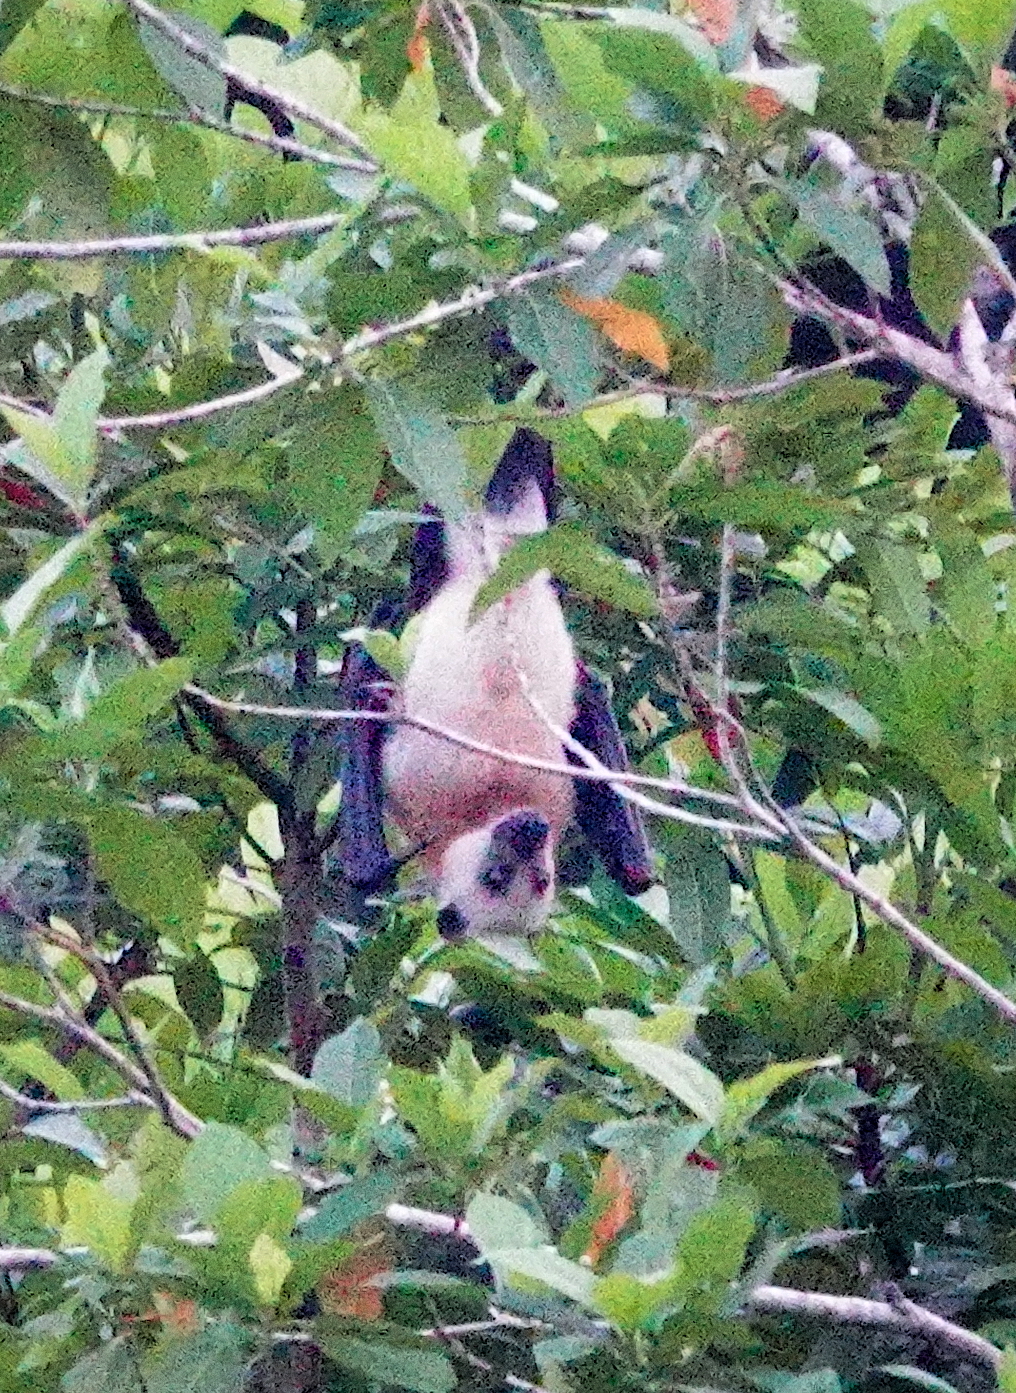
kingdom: Animalia
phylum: Chordata
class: Mammalia
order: Chiroptera
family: Pteropodidae
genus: Pteropus
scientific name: Pteropus keyensis
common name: Kei flying fox
